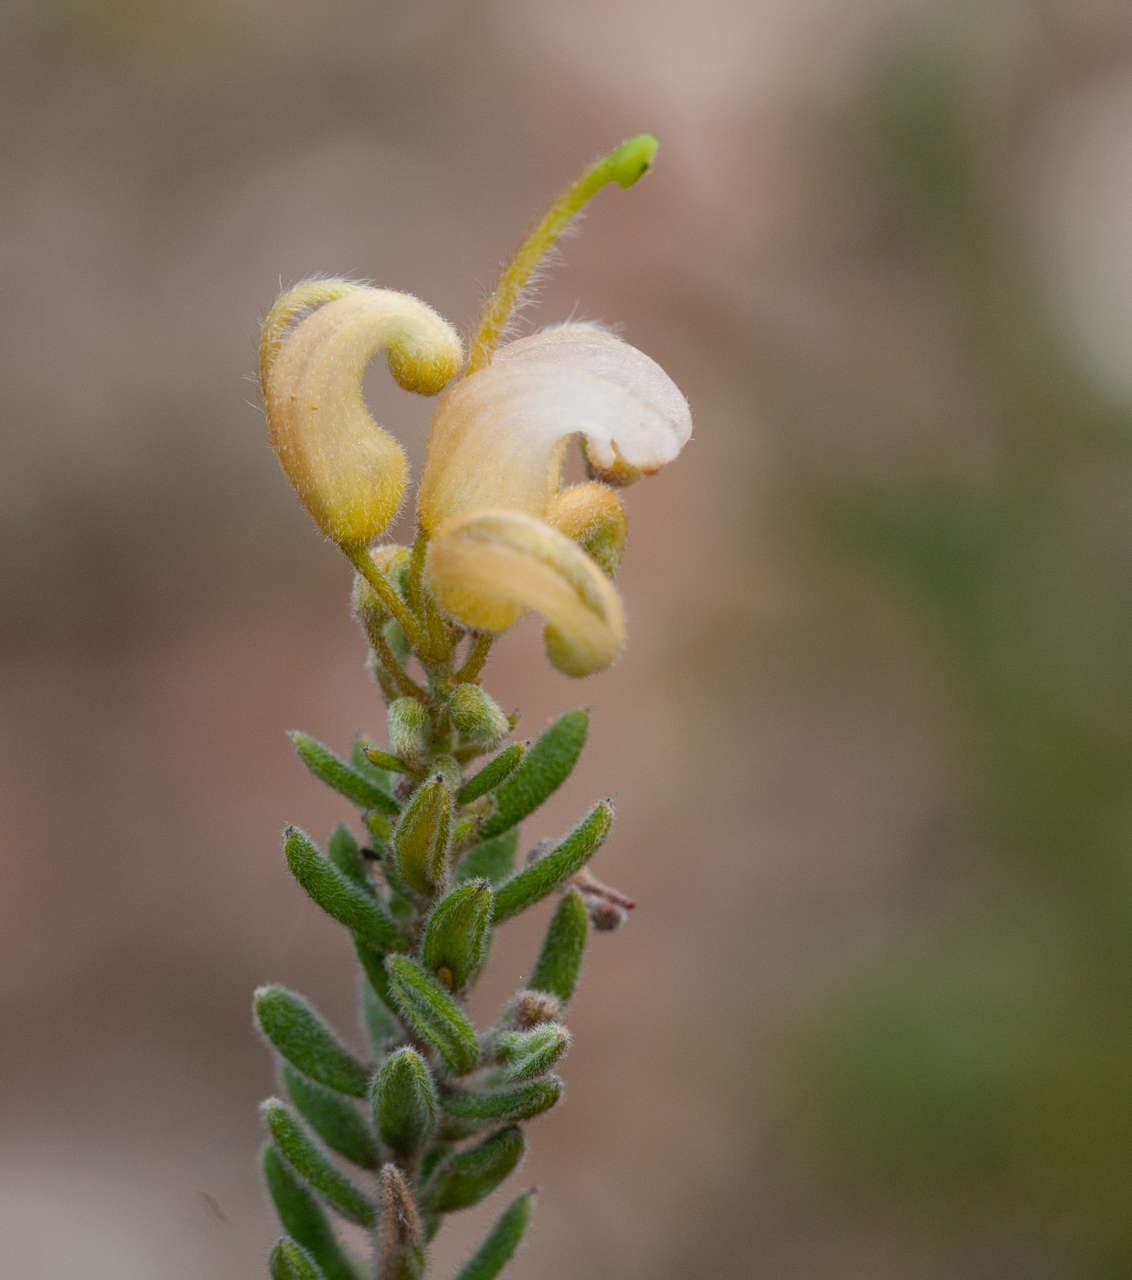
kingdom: Plantae
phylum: Tracheophyta
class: Magnoliopsida
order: Proteales
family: Proteaceae
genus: Grevillea
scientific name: Grevillea alpina
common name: Catclaws grevillea
